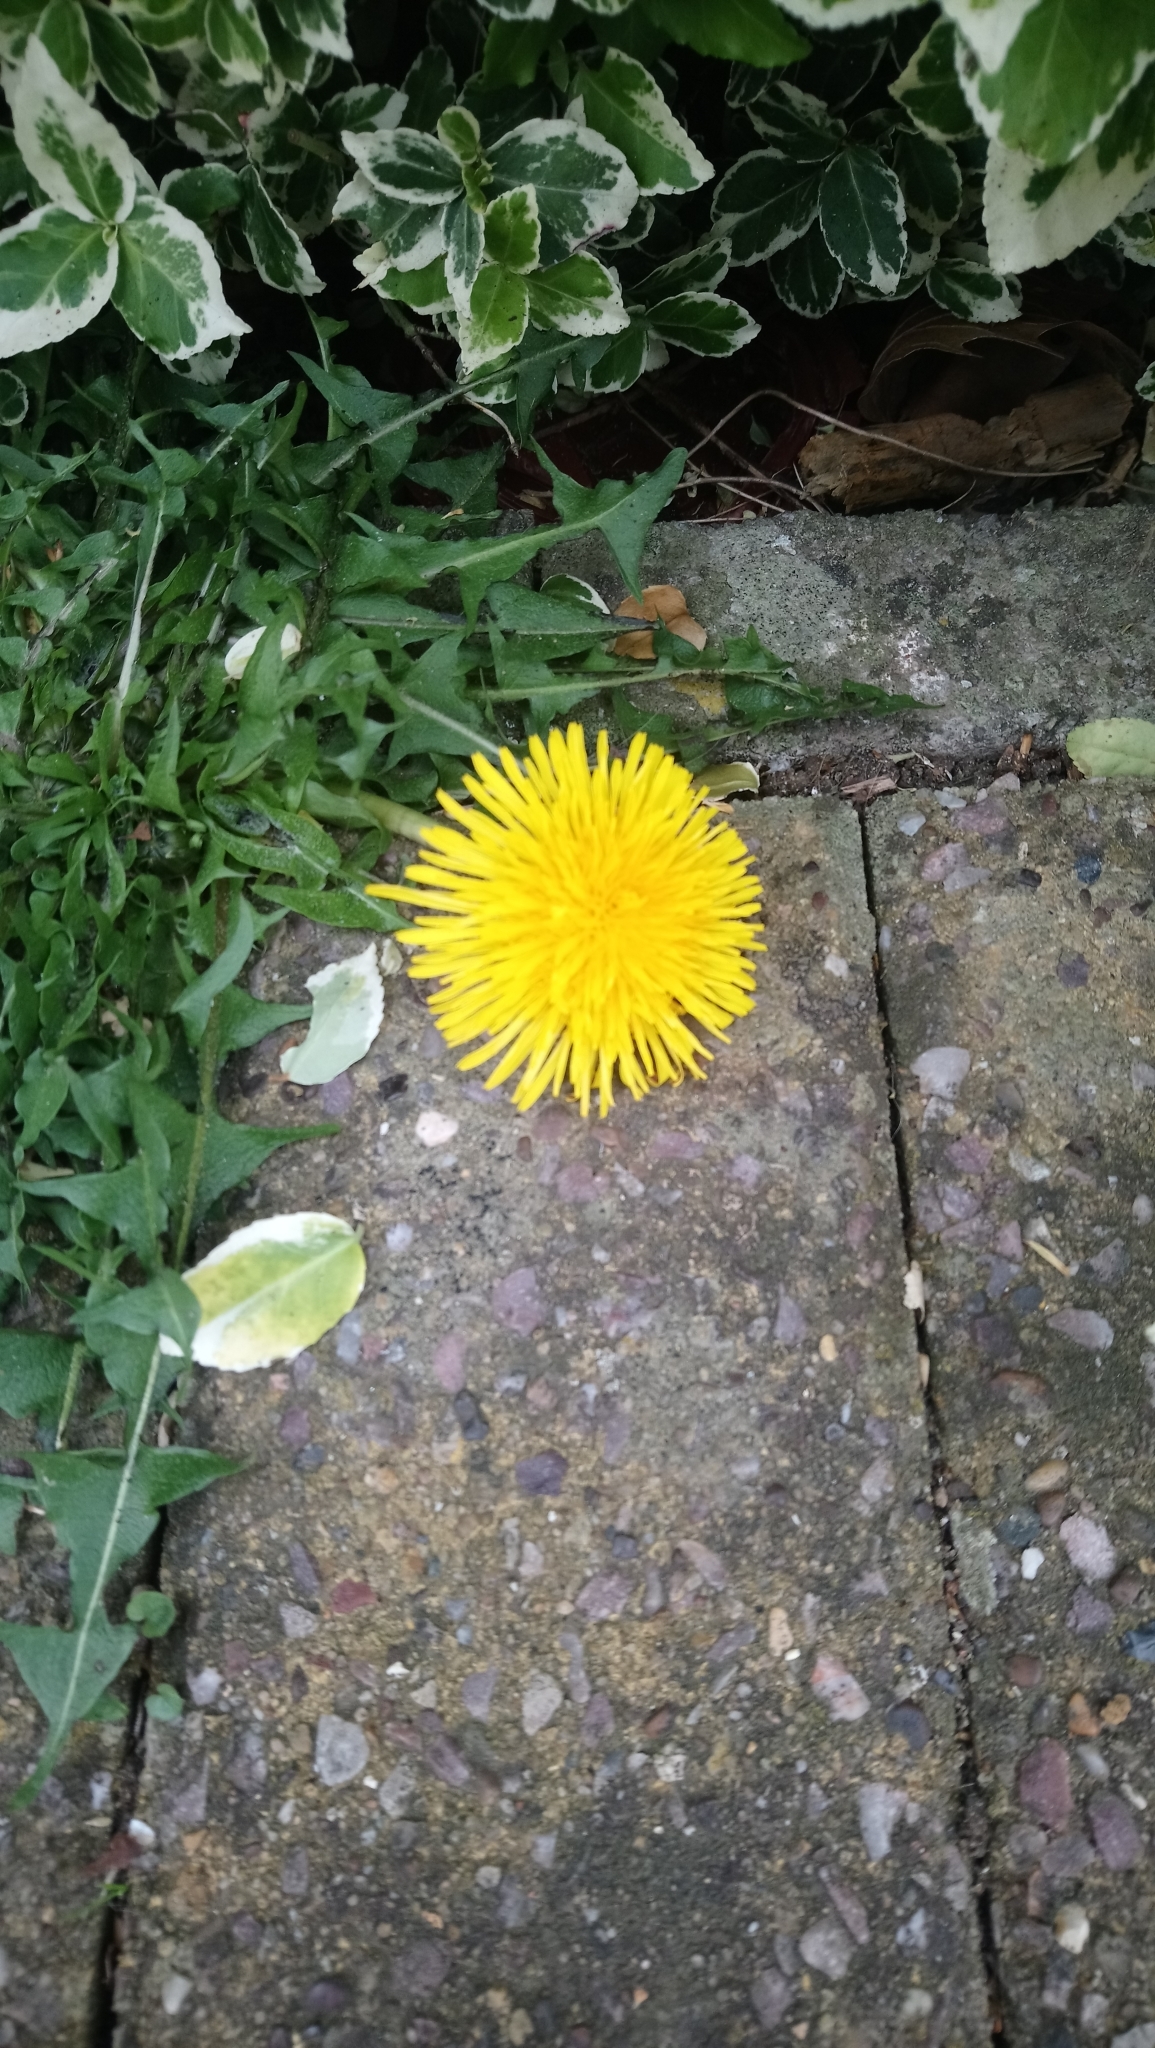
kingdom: Plantae
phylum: Tracheophyta
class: Magnoliopsida
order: Asterales
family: Asteraceae
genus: Taraxacum
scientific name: Taraxacum officinale
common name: Common dandelion
